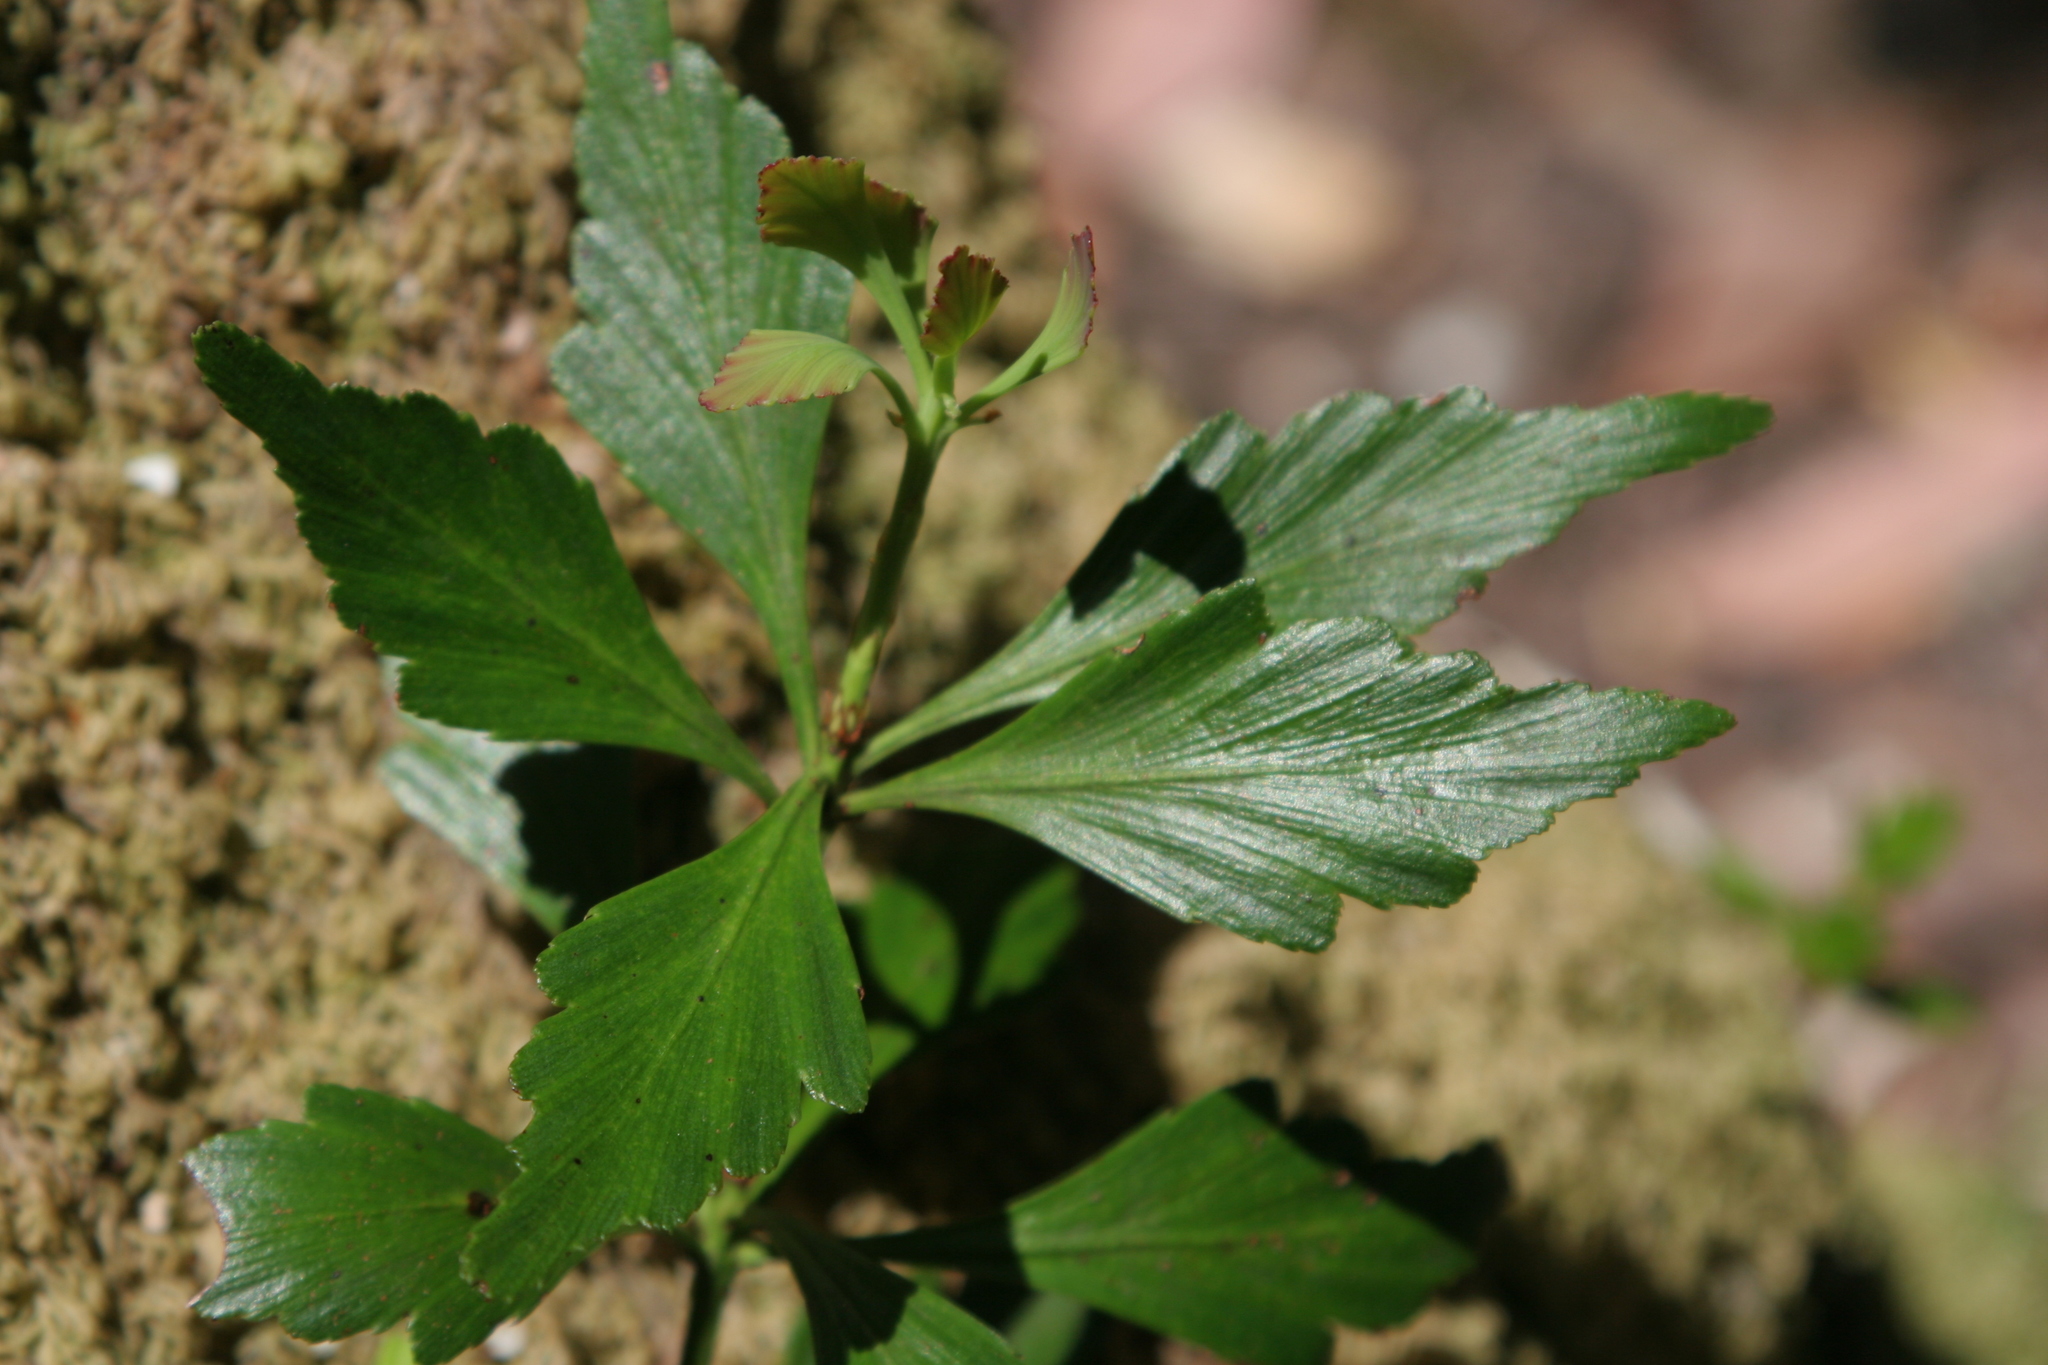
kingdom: Plantae
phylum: Tracheophyta
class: Pinopsida
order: Pinales
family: Phyllocladaceae
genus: Phyllocladus
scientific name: Phyllocladus aspleniifolius
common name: Celery-top pine
